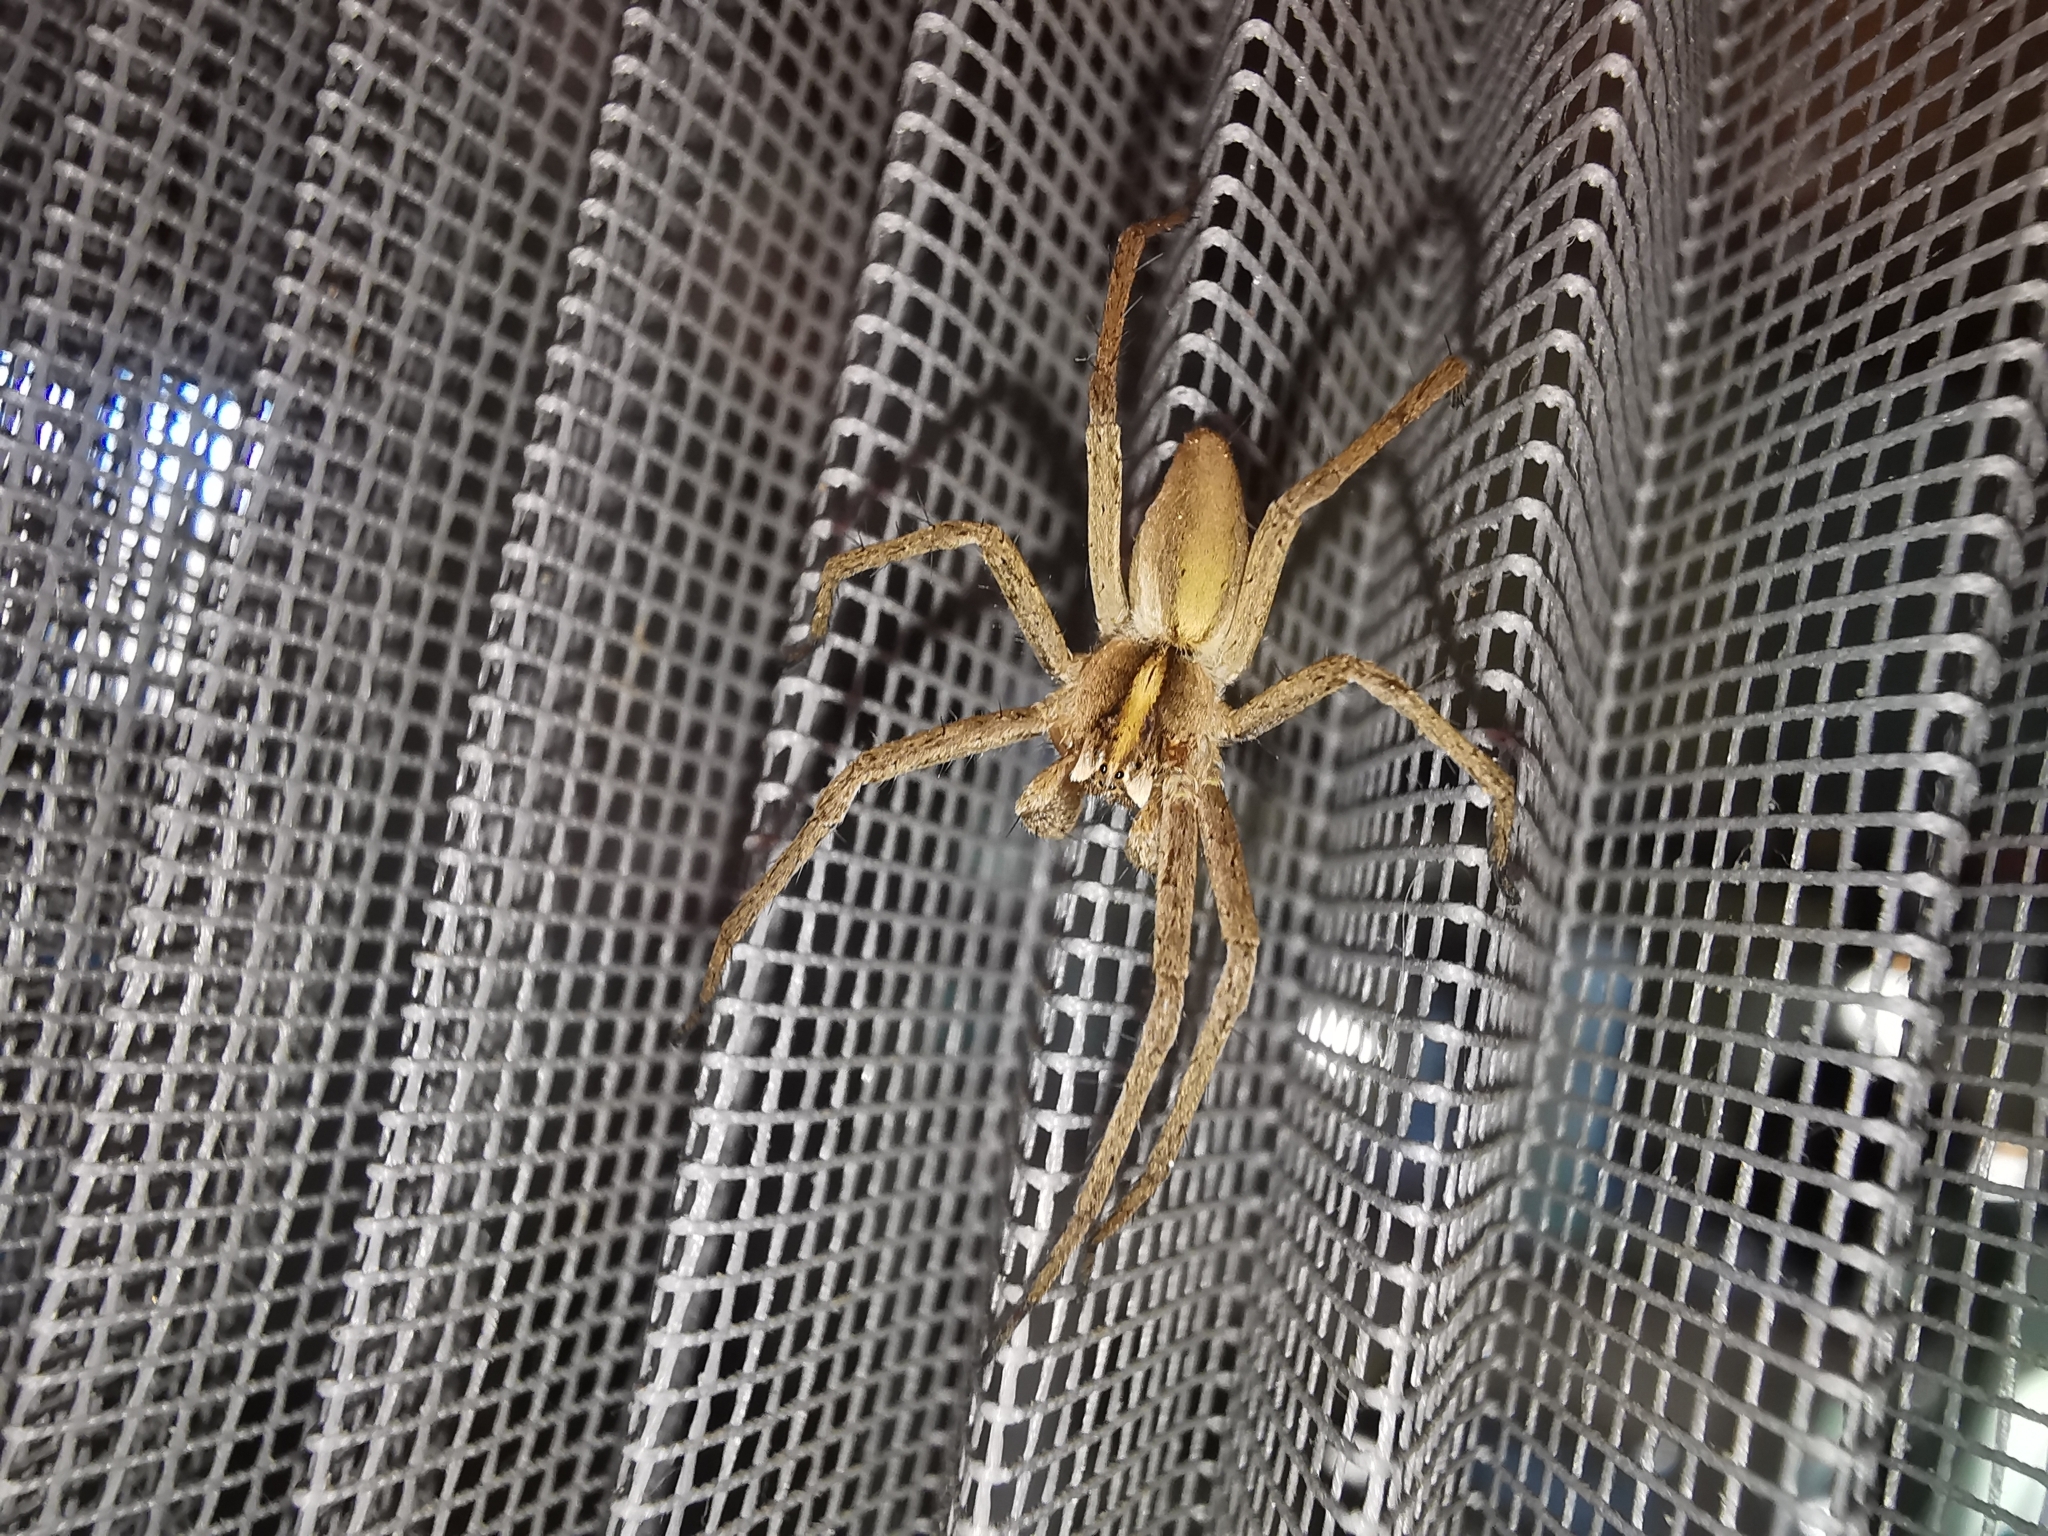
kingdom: Animalia
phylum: Arthropoda
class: Arachnida
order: Araneae
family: Pisauridae
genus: Pisaura
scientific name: Pisaura mirabilis
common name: Tent spider
